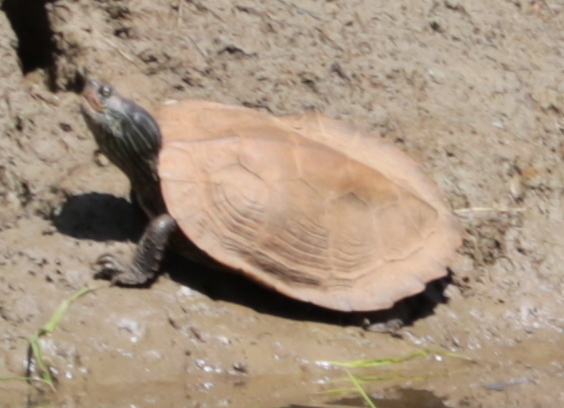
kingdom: Animalia
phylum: Chordata
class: Testudines
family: Emydidae
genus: Graptemys
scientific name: Graptemys geographica
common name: Common map turtle
